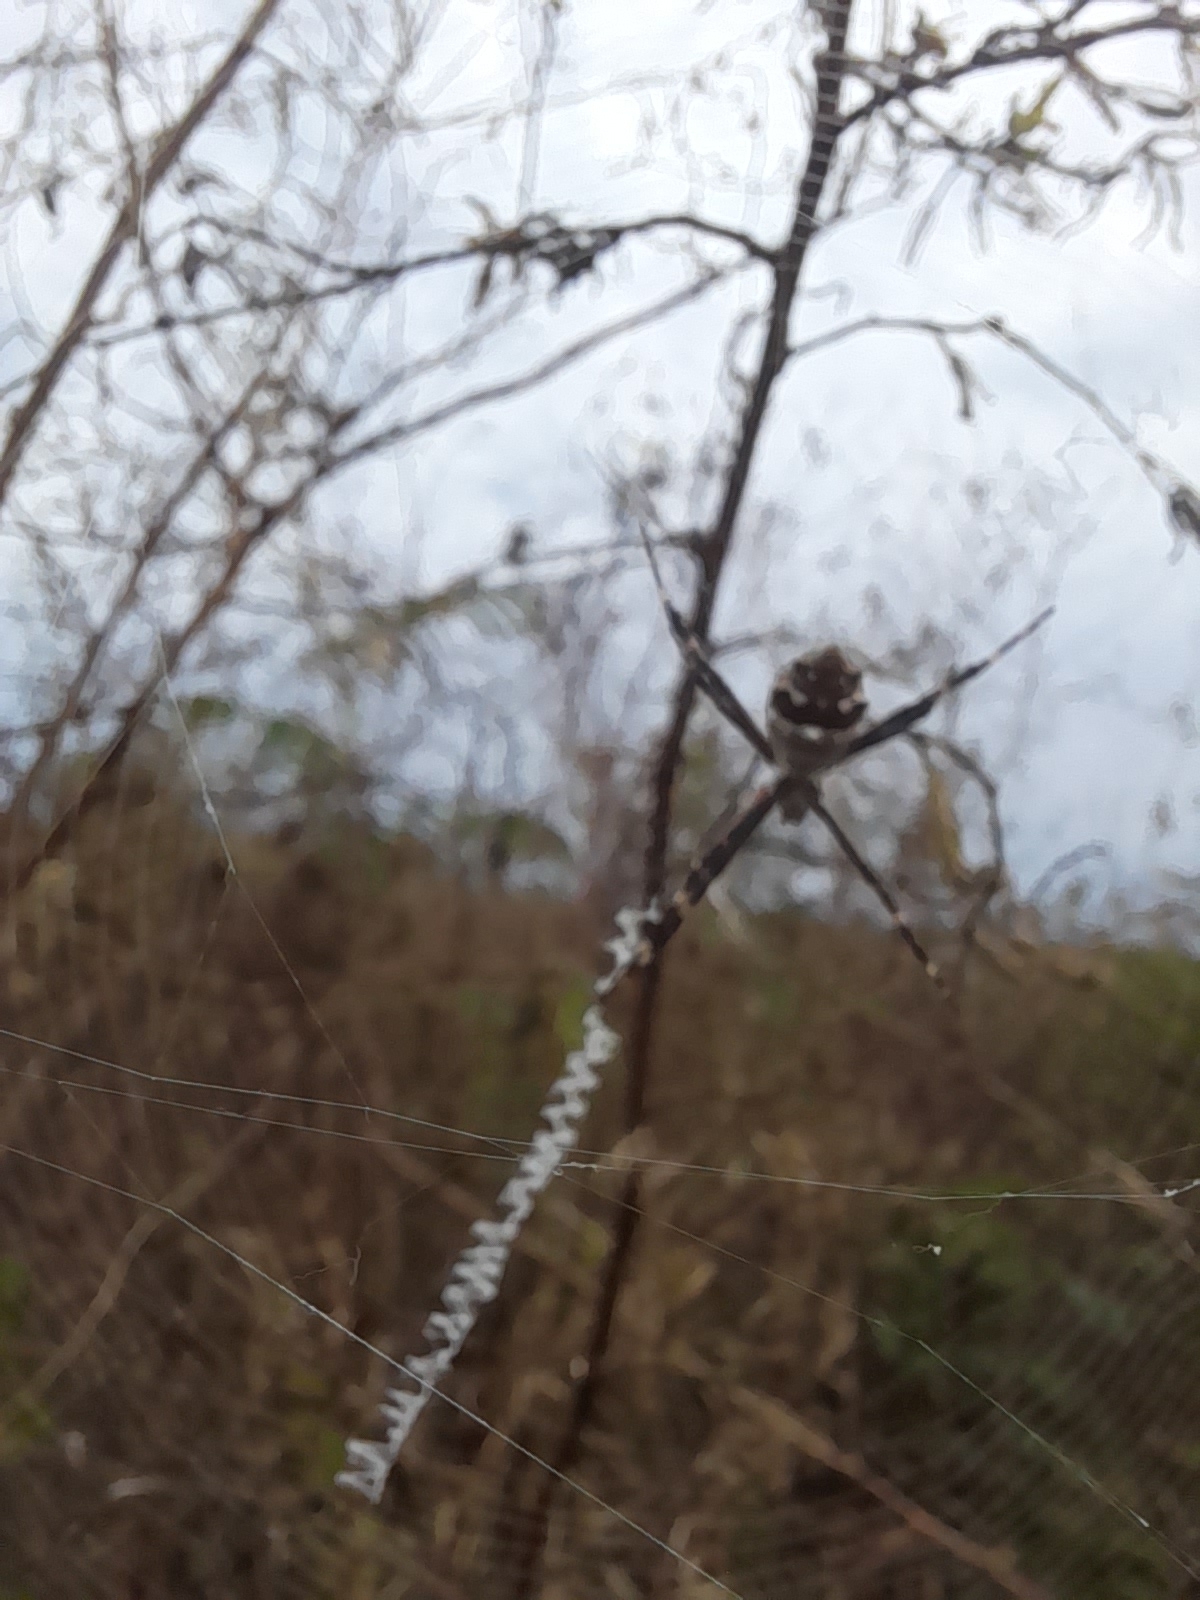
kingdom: Animalia
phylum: Arthropoda
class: Arachnida
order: Araneae
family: Araneidae
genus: Argiope
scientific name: Argiope argentata
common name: Orb weavers
